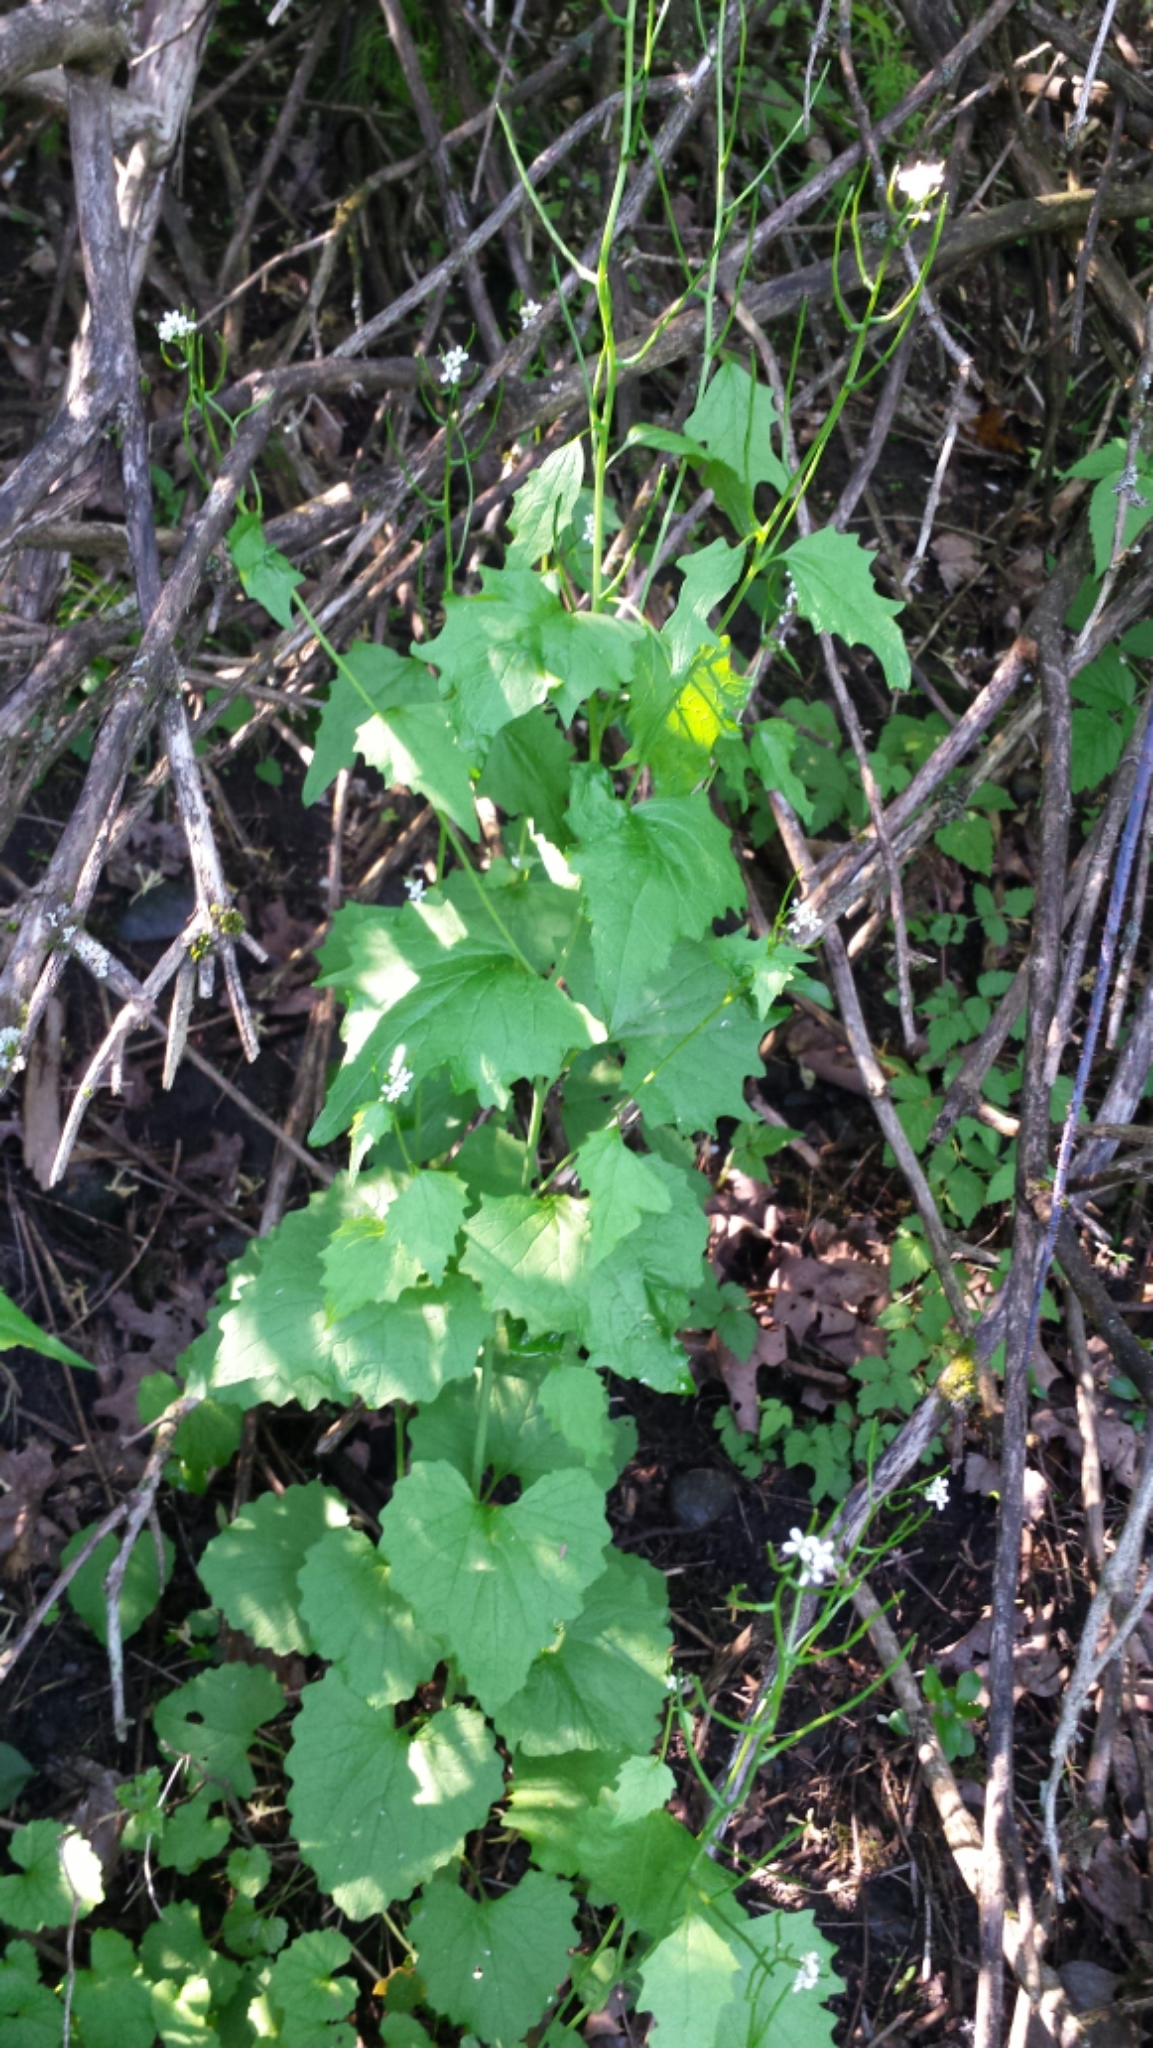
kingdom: Plantae
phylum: Tracheophyta
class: Magnoliopsida
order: Brassicales
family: Brassicaceae
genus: Alliaria
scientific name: Alliaria petiolata
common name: Garlic mustard
